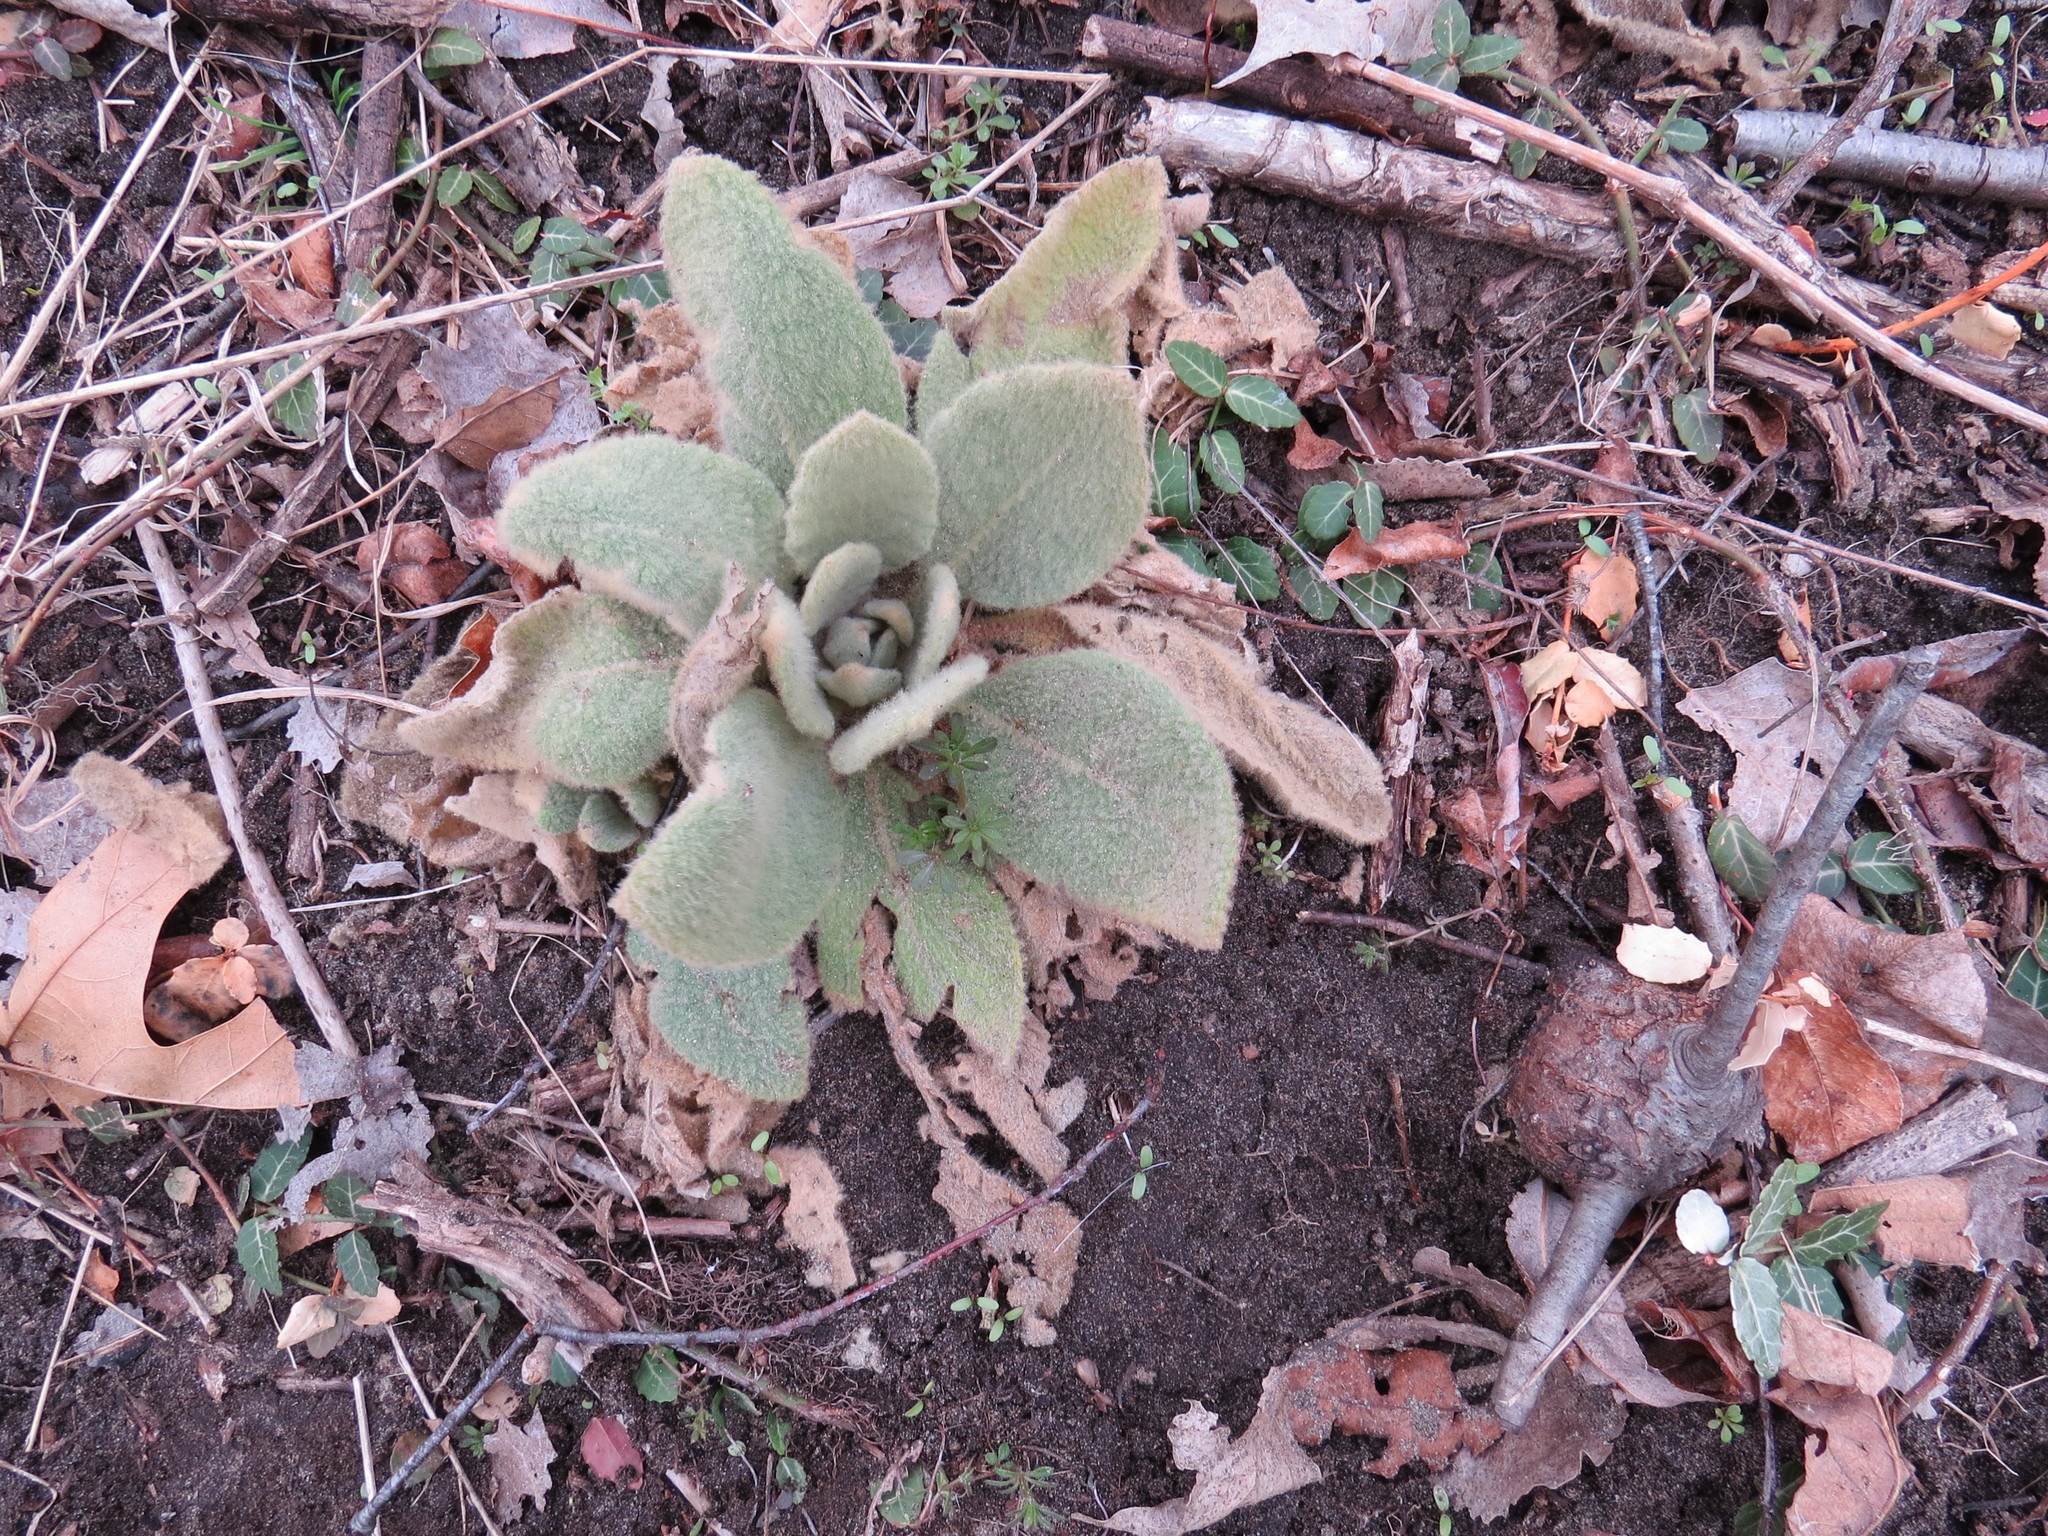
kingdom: Plantae
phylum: Tracheophyta
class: Magnoliopsida
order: Lamiales
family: Scrophulariaceae
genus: Verbascum
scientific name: Verbascum thapsus
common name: Common mullein
